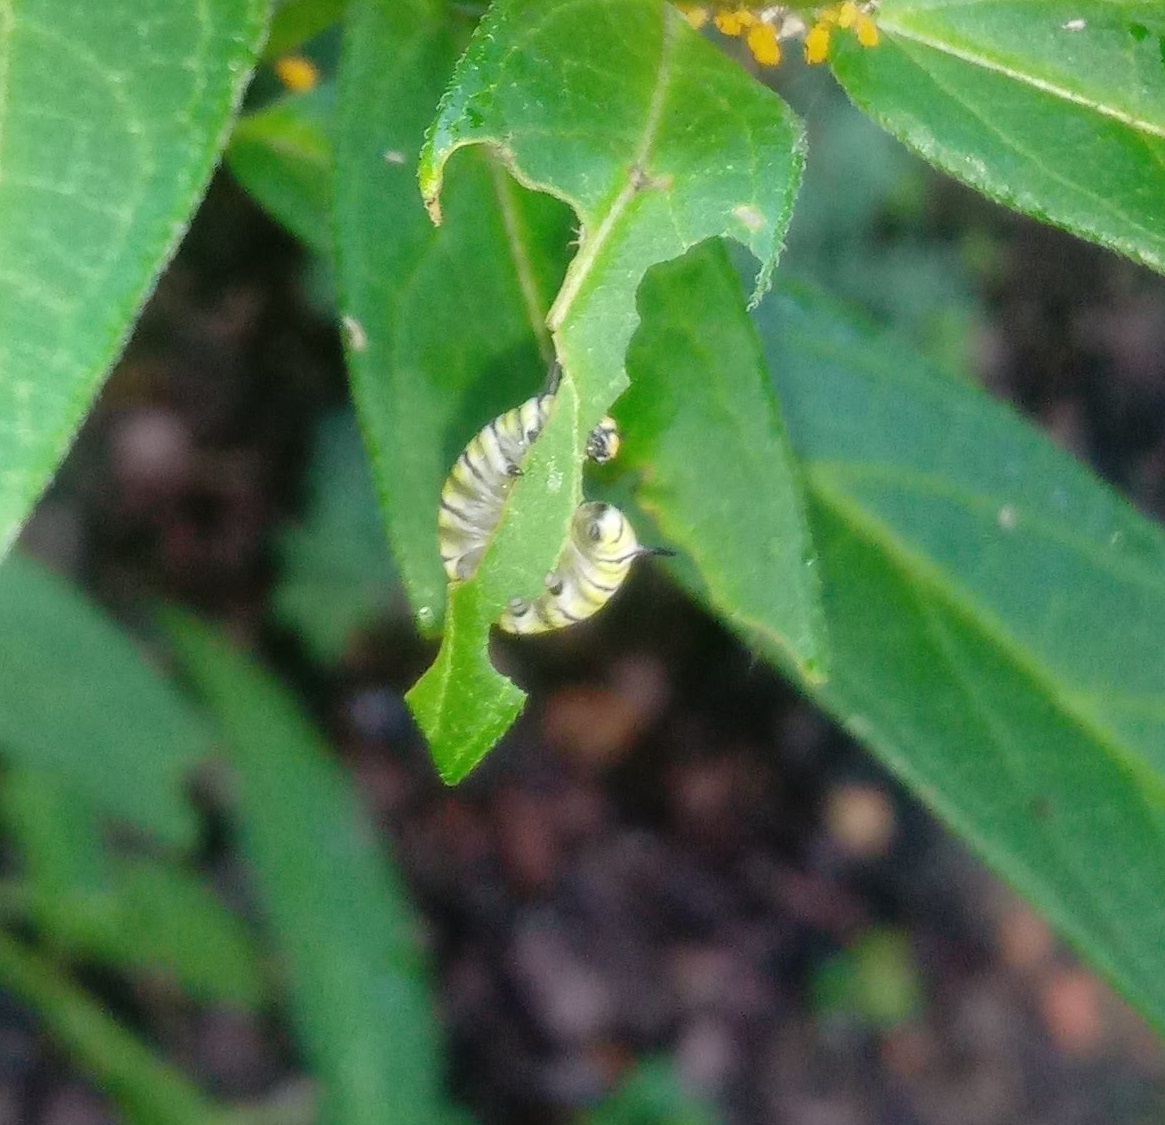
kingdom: Animalia
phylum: Arthropoda
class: Insecta
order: Lepidoptera
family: Nymphalidae
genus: Danaus
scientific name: Danaus plexippus
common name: Monarch
